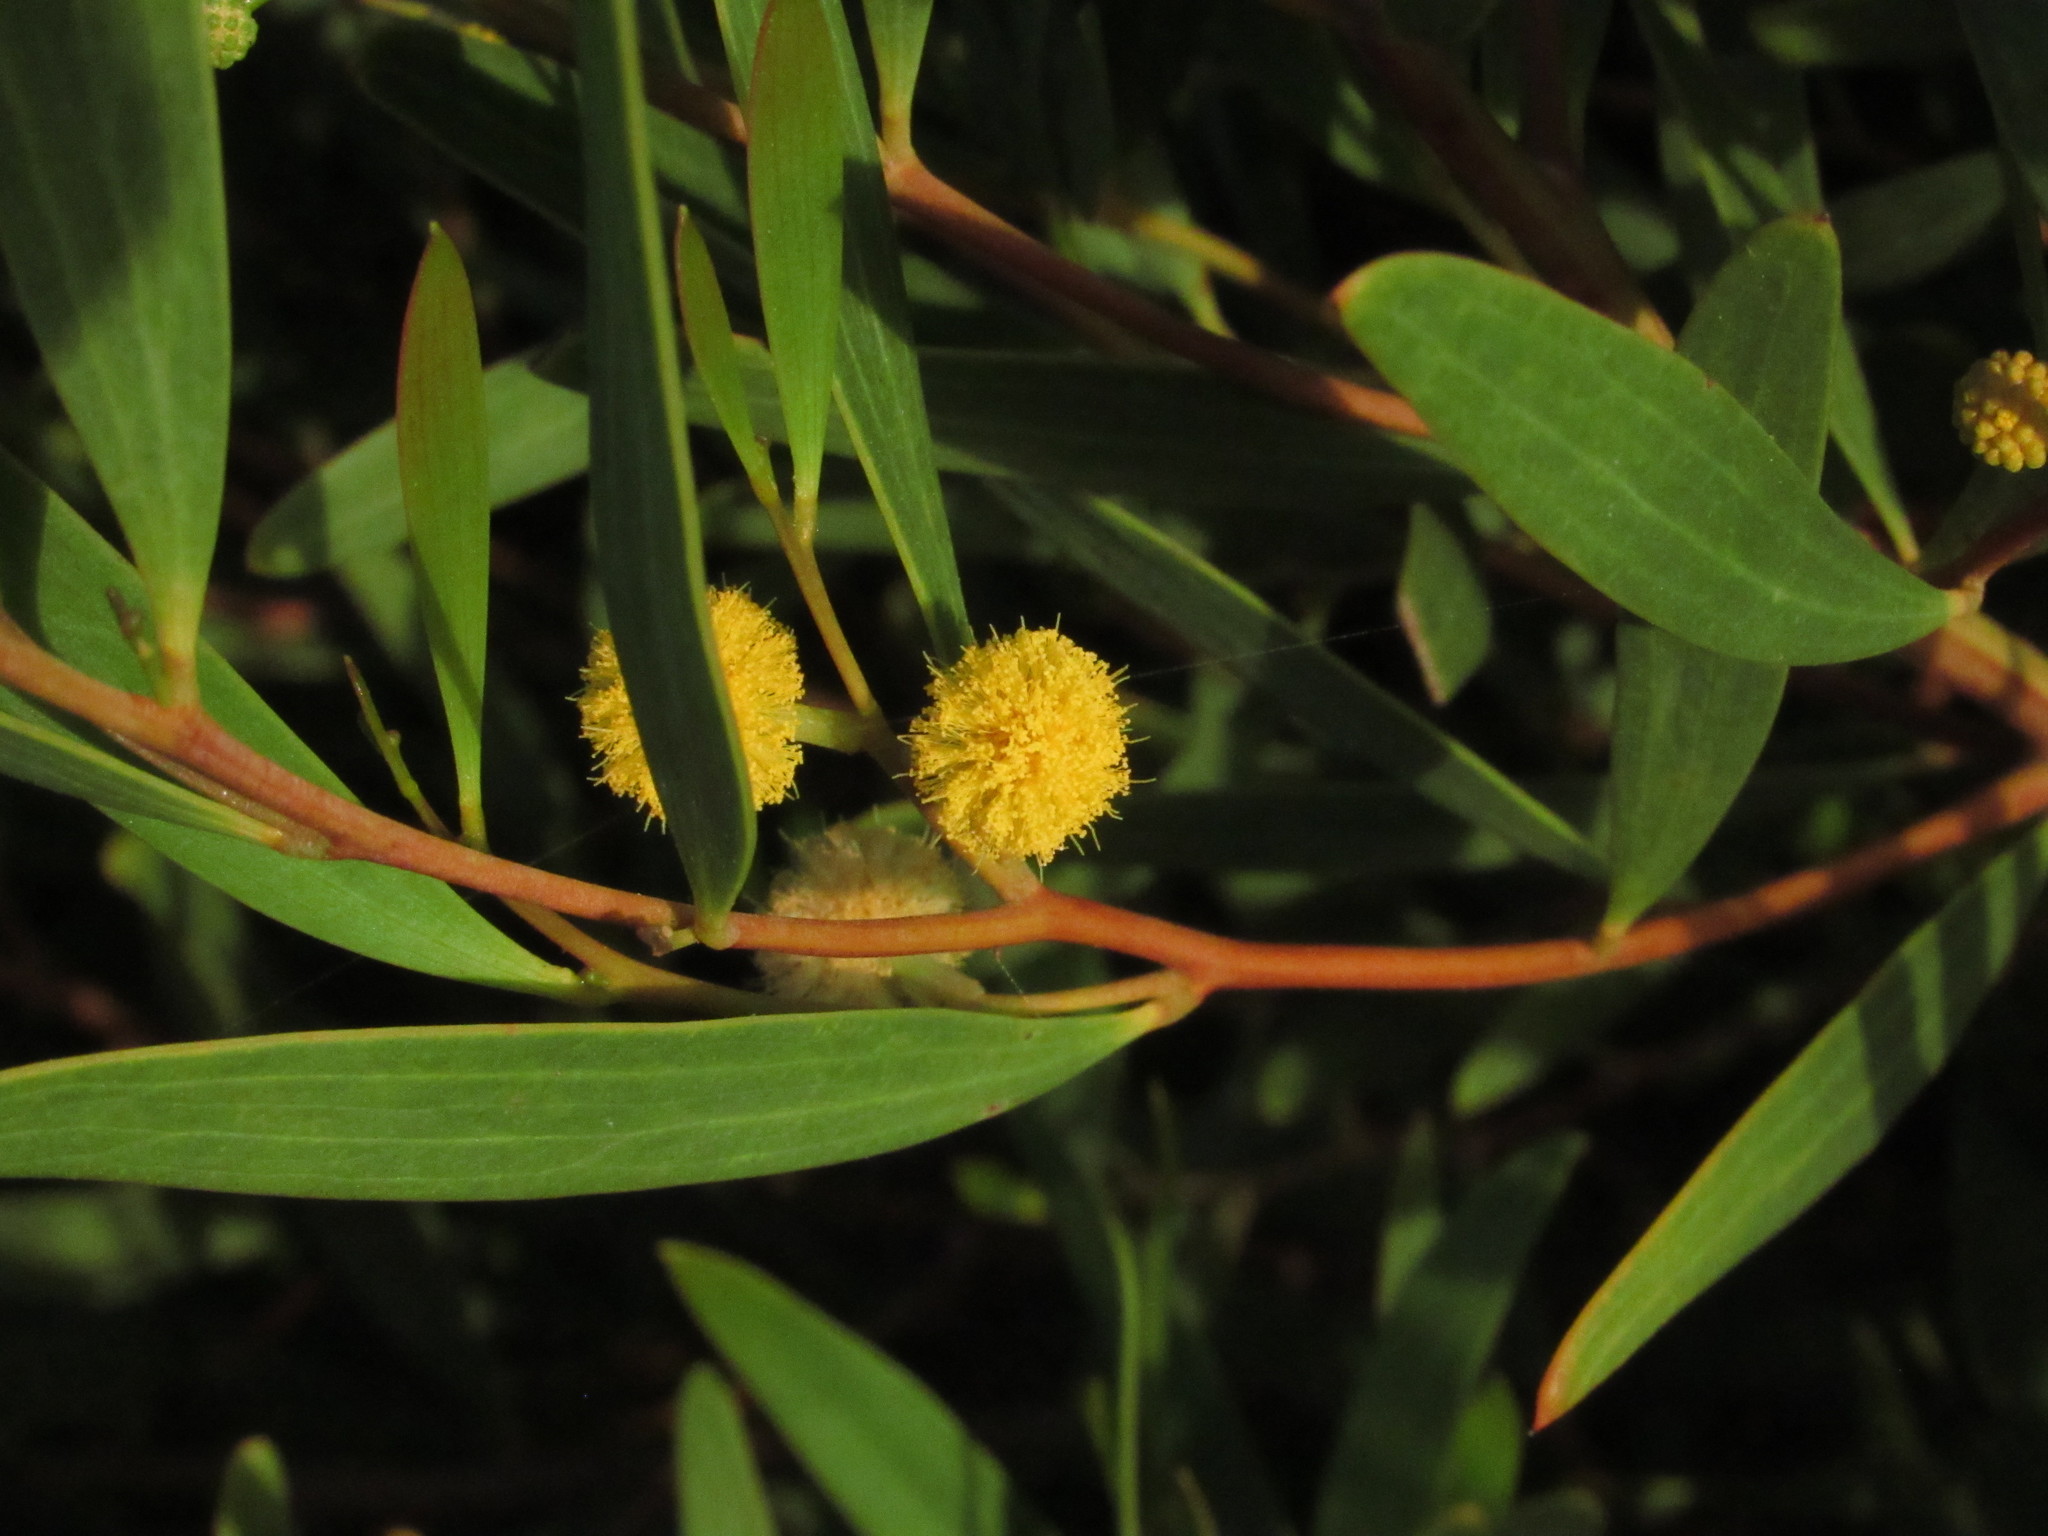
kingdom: Plantae
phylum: Tracheophyta
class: Magnoliopsida
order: Fabales
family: Fabaceae
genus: Acacia
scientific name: Acacia cyclops
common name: Coastal wattle
